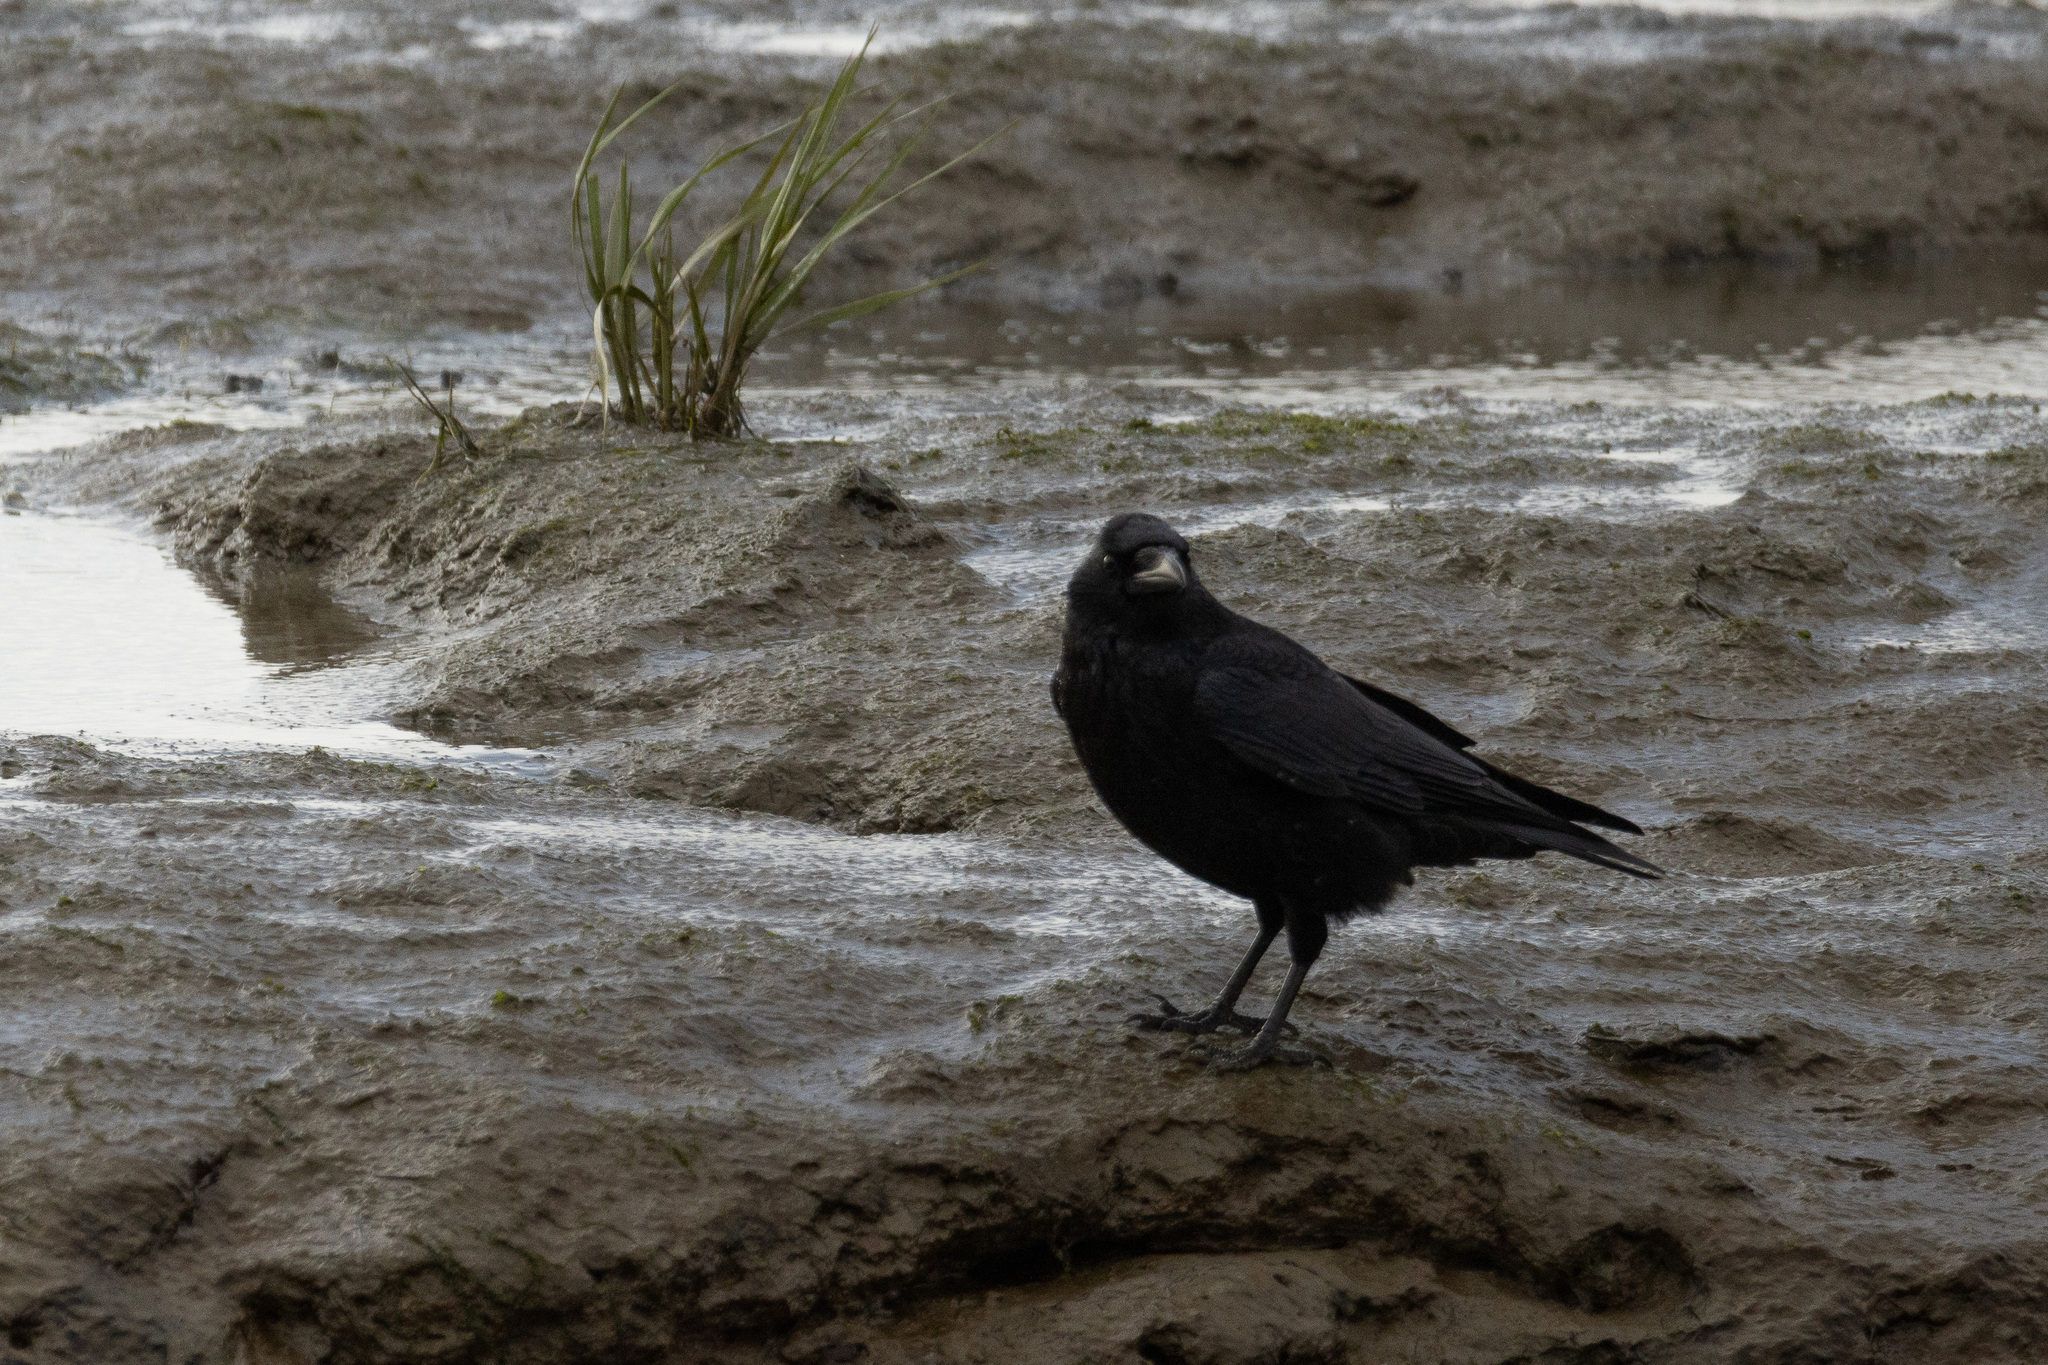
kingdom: Animalia
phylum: Chordata
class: Aves
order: Passeriformes
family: Corvidae
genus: Corvus
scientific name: Corvus corone
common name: Carrion crow
